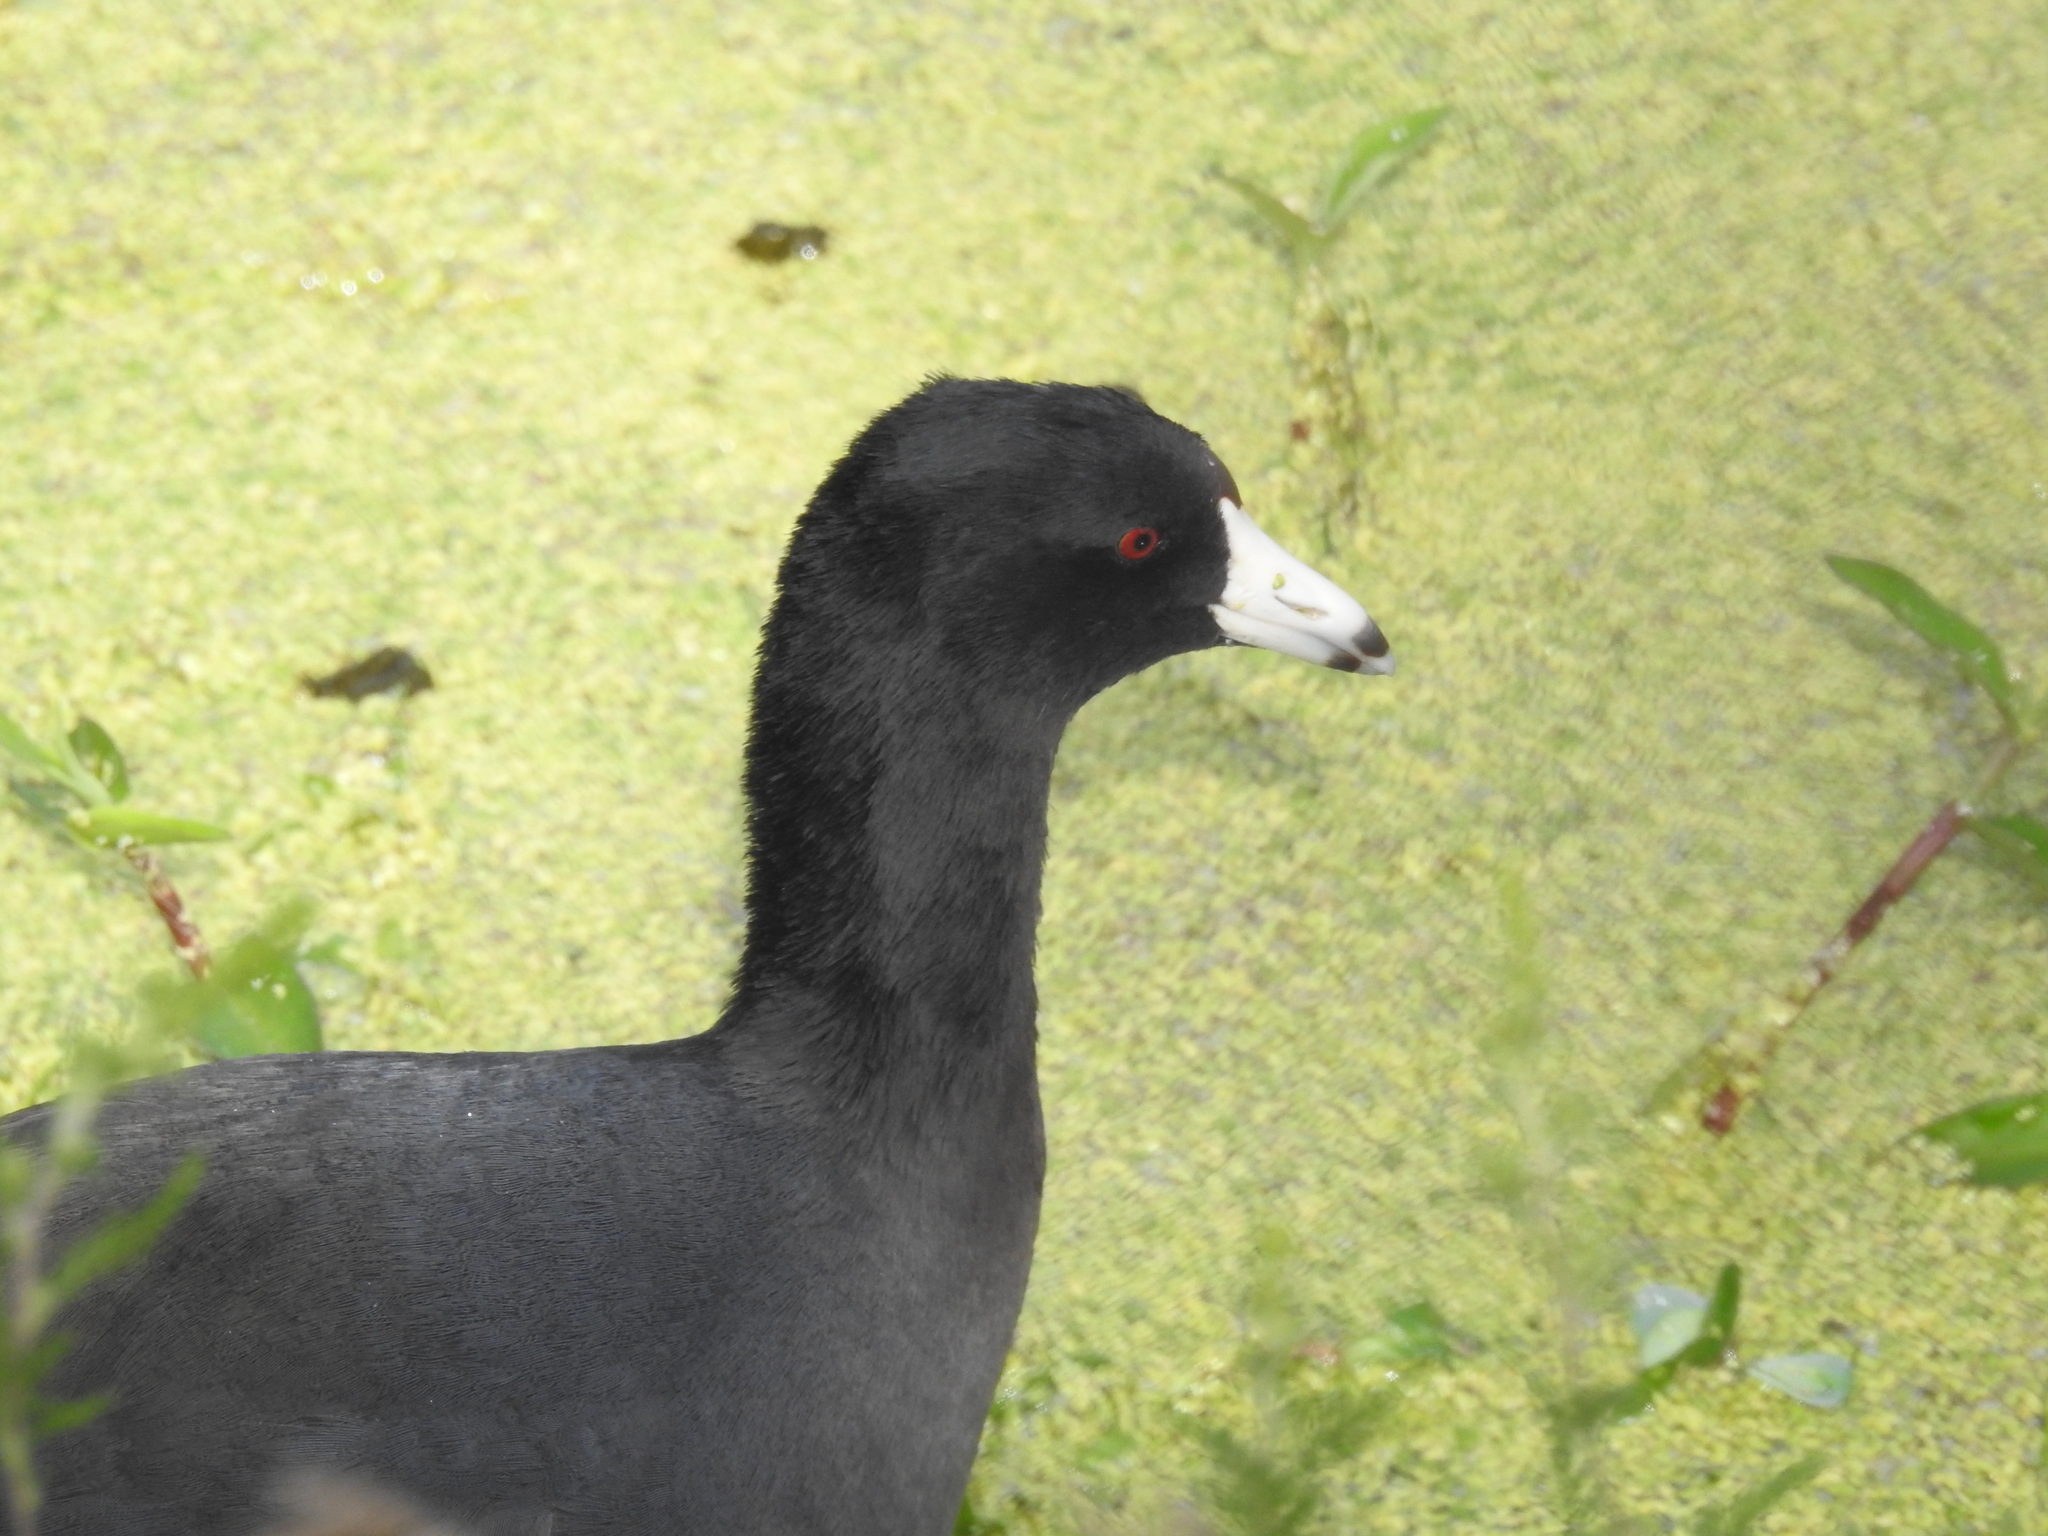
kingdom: Animalia
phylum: Chordata
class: Aves
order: Gruiformes
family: Rallidae
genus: Fulica
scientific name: Fulica americana
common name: American coot
